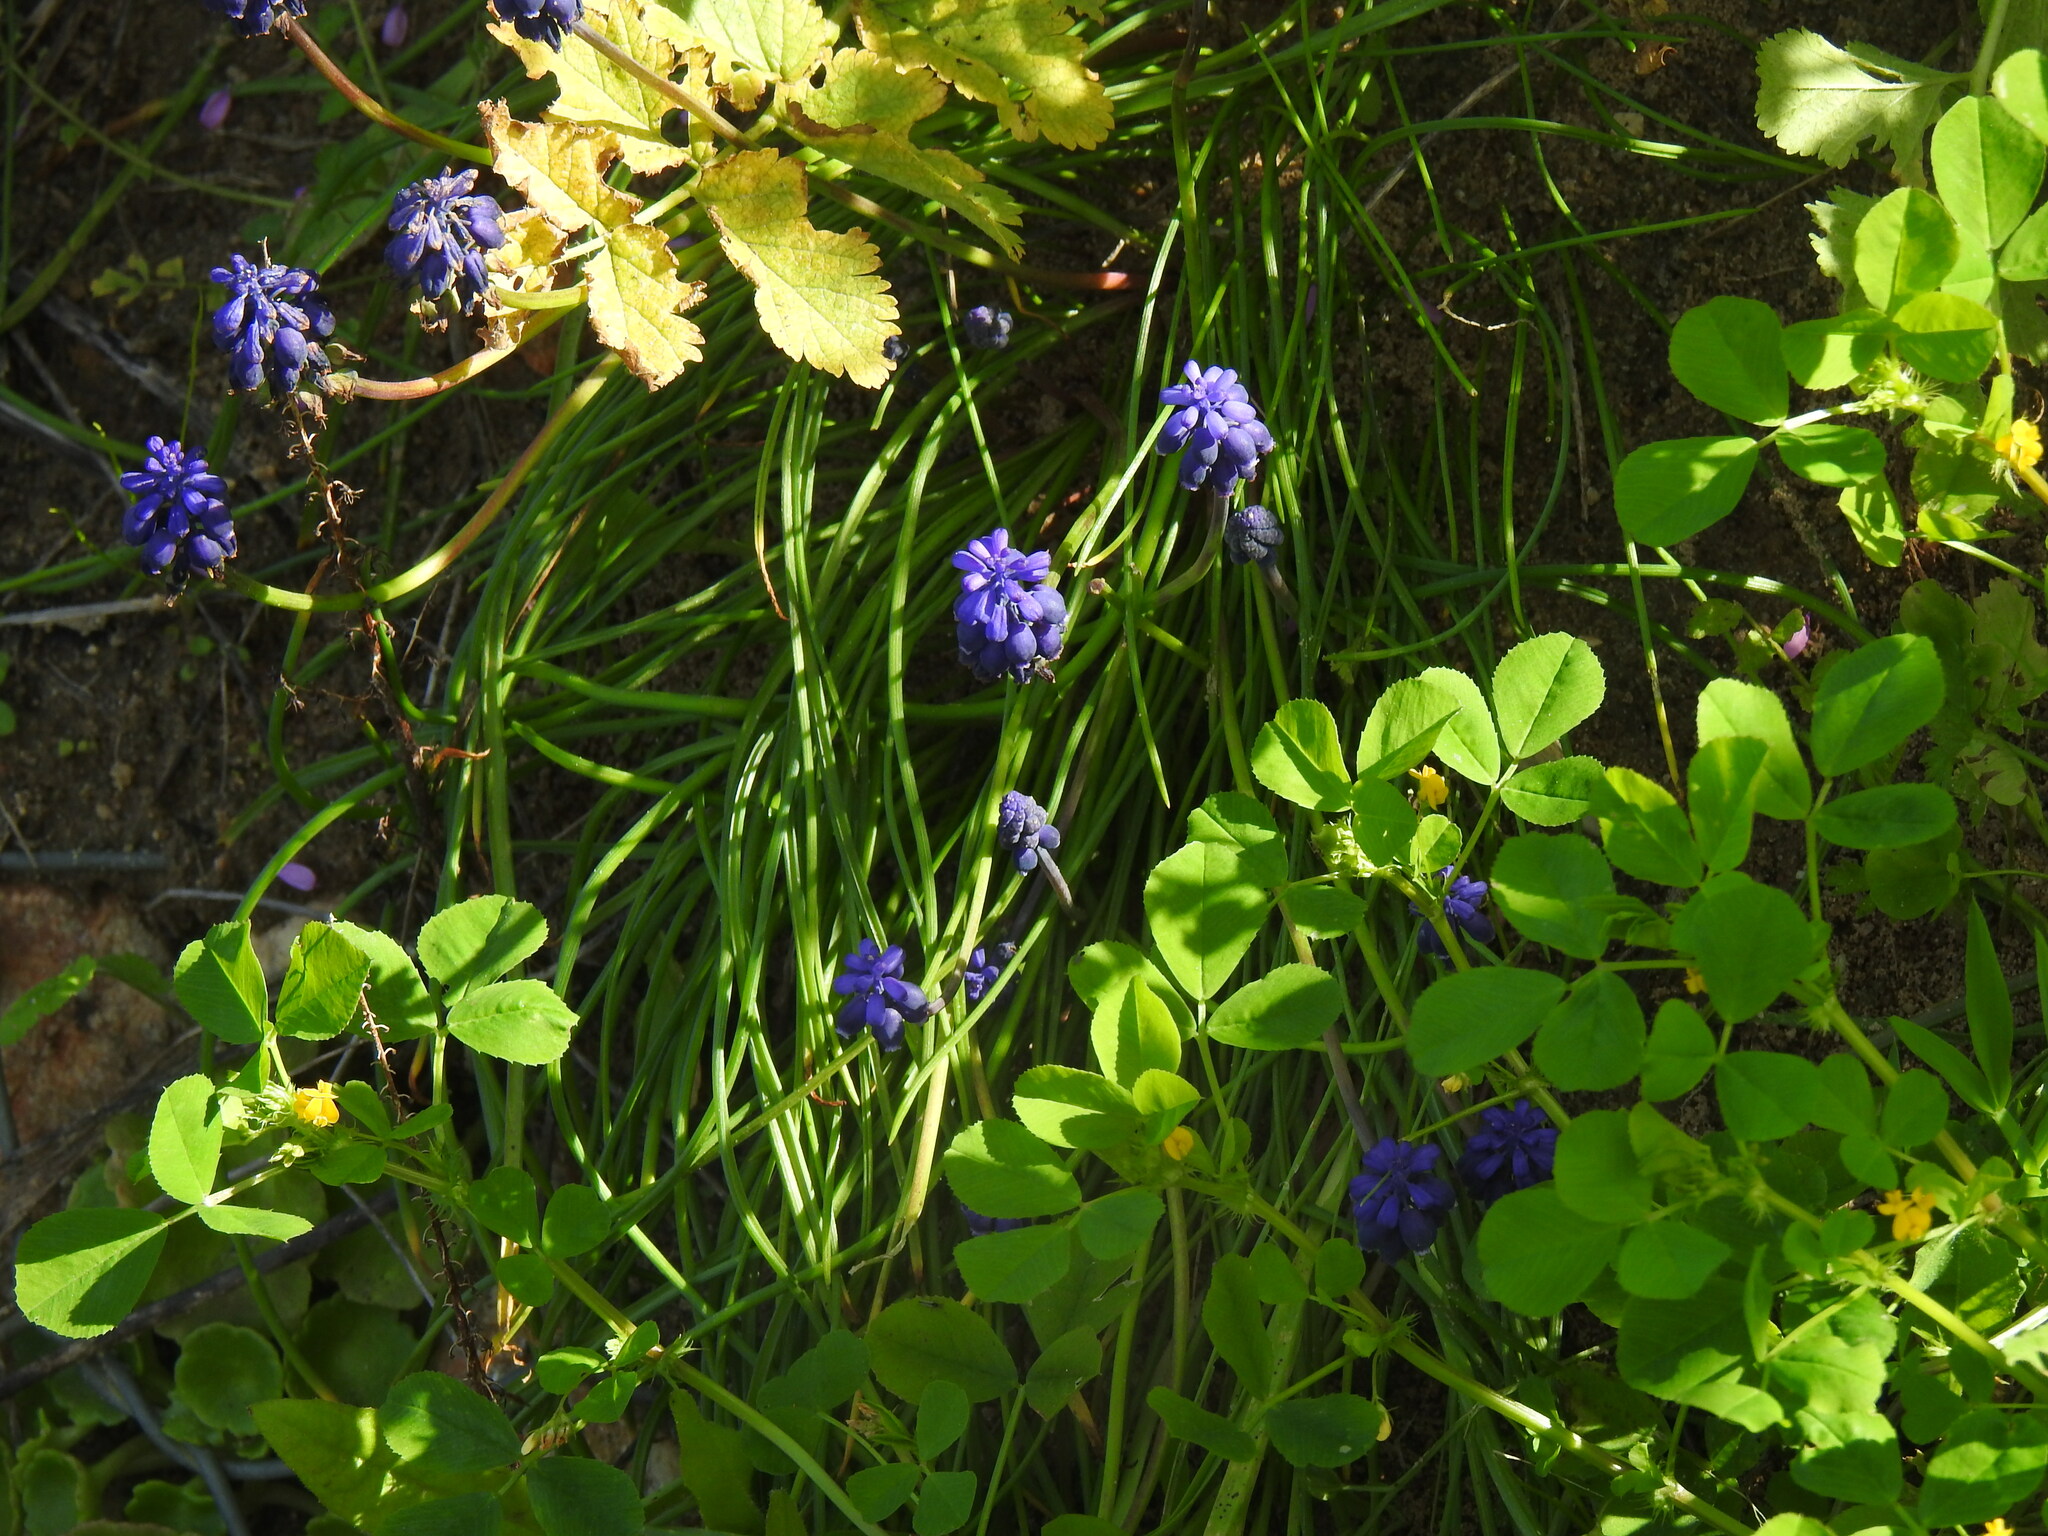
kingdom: Plantae
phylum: Tracheophyta
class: Liliopsida
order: Asparagales
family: Asparagaceae
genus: Muscari
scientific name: Muscari neglectum
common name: Grape-hyacinth
